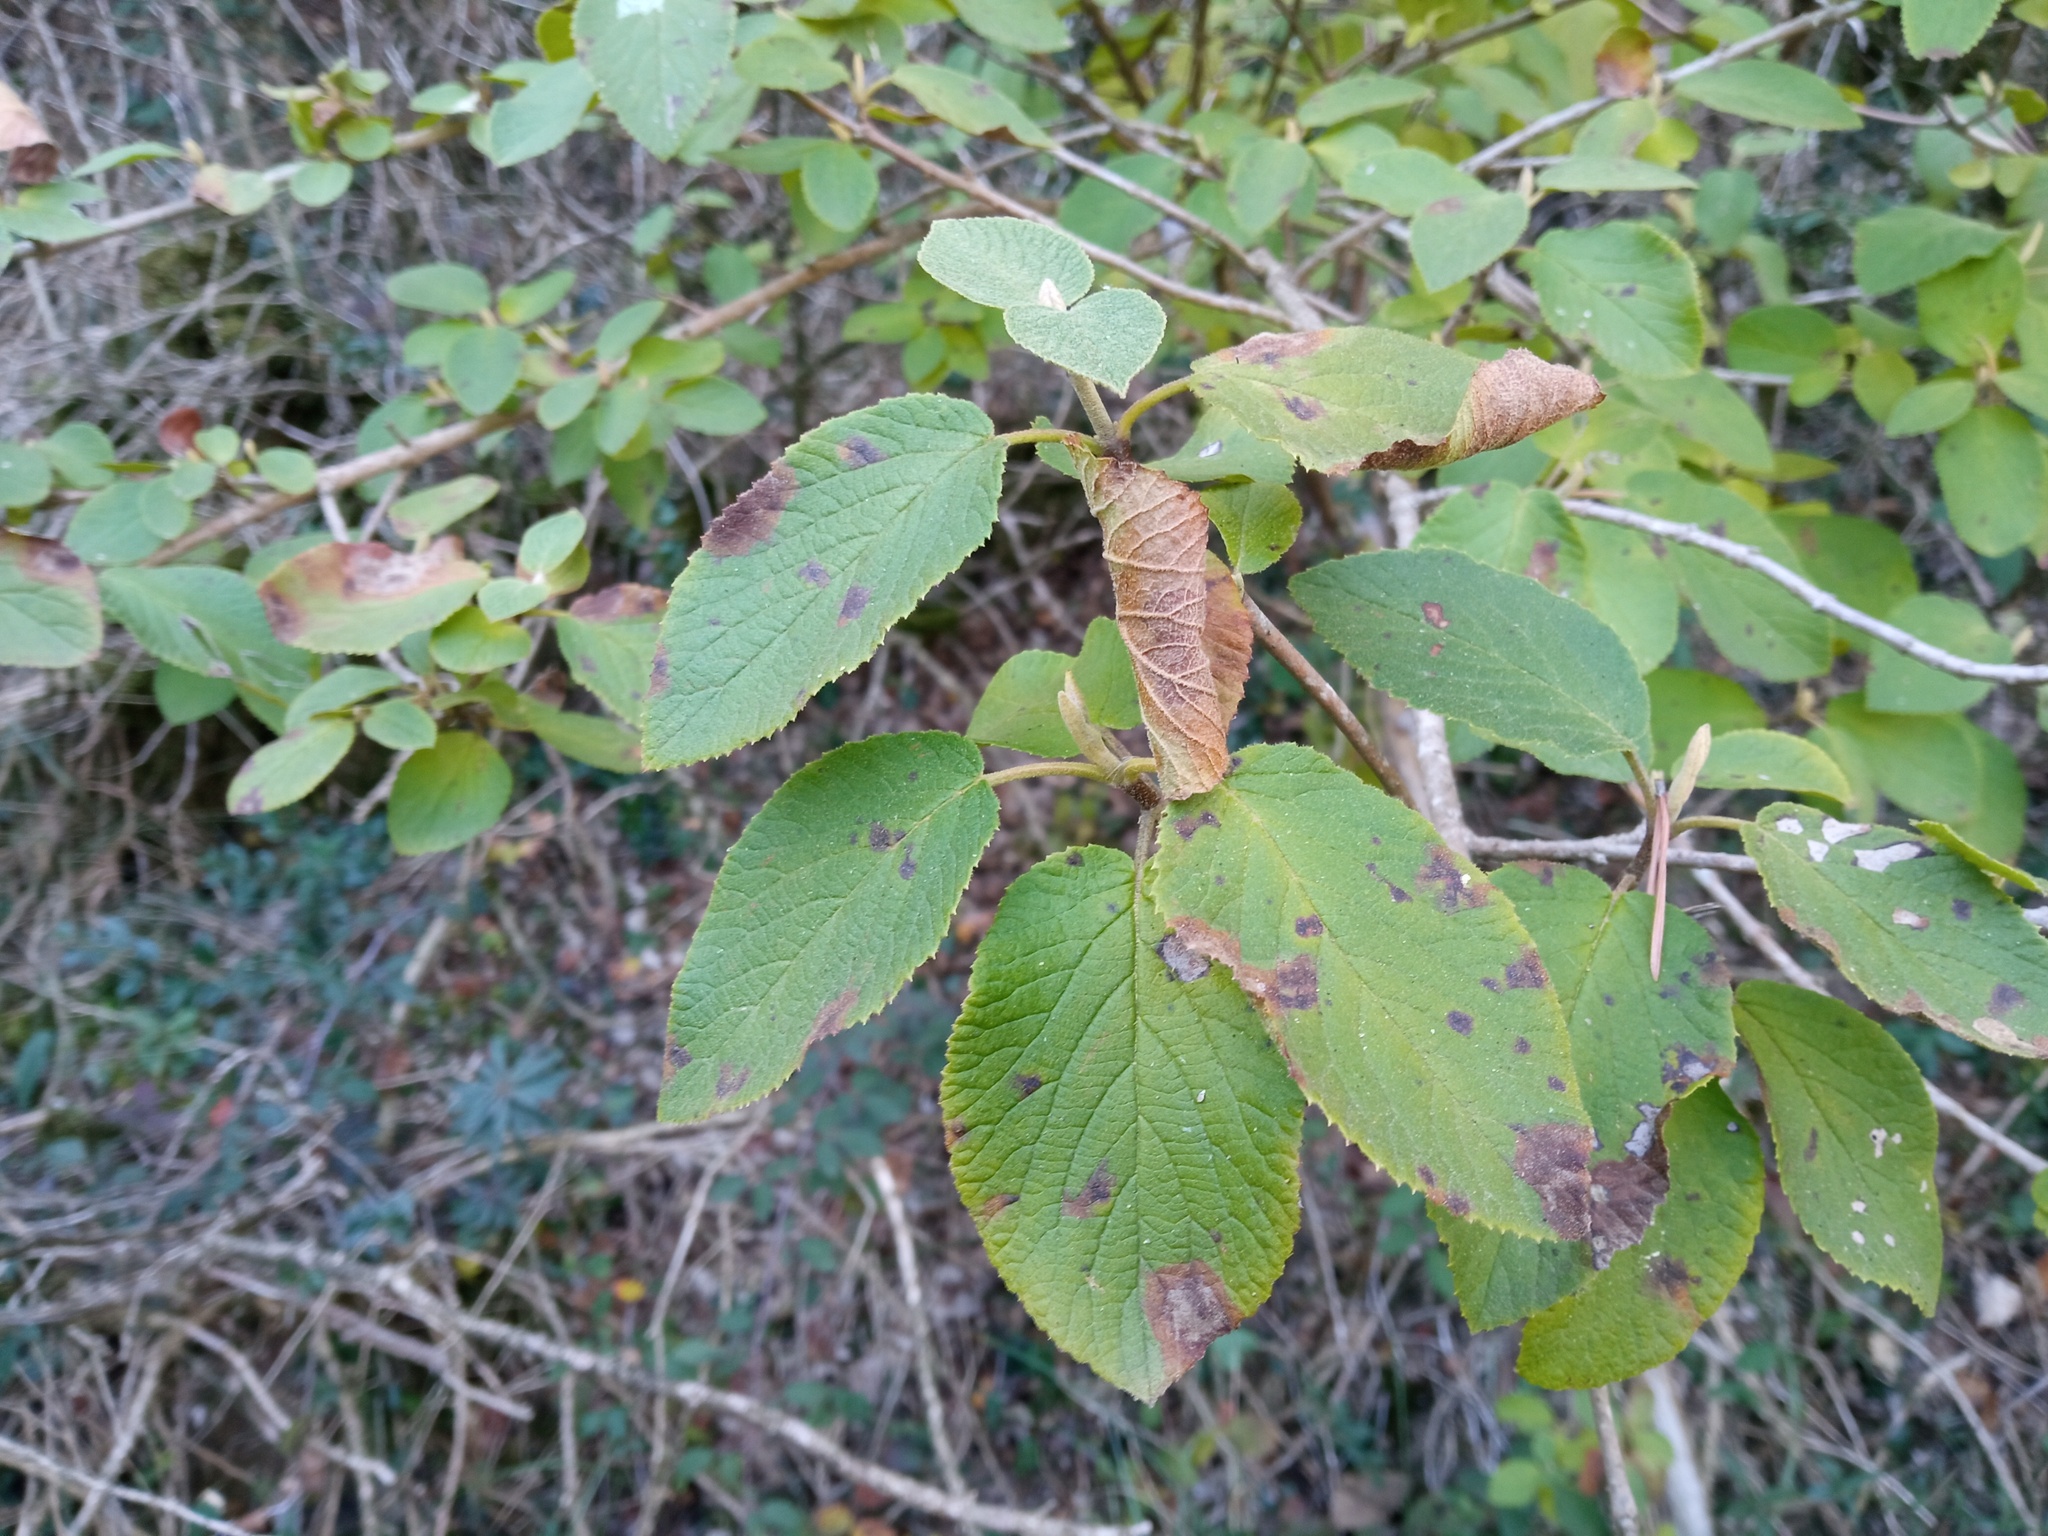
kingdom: Plantae
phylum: Tracheophyta
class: Magnoliopsida
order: Dipsacales
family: Viburnaceae
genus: Viburnum
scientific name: Viburnum lantana
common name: Wayfaring tree
